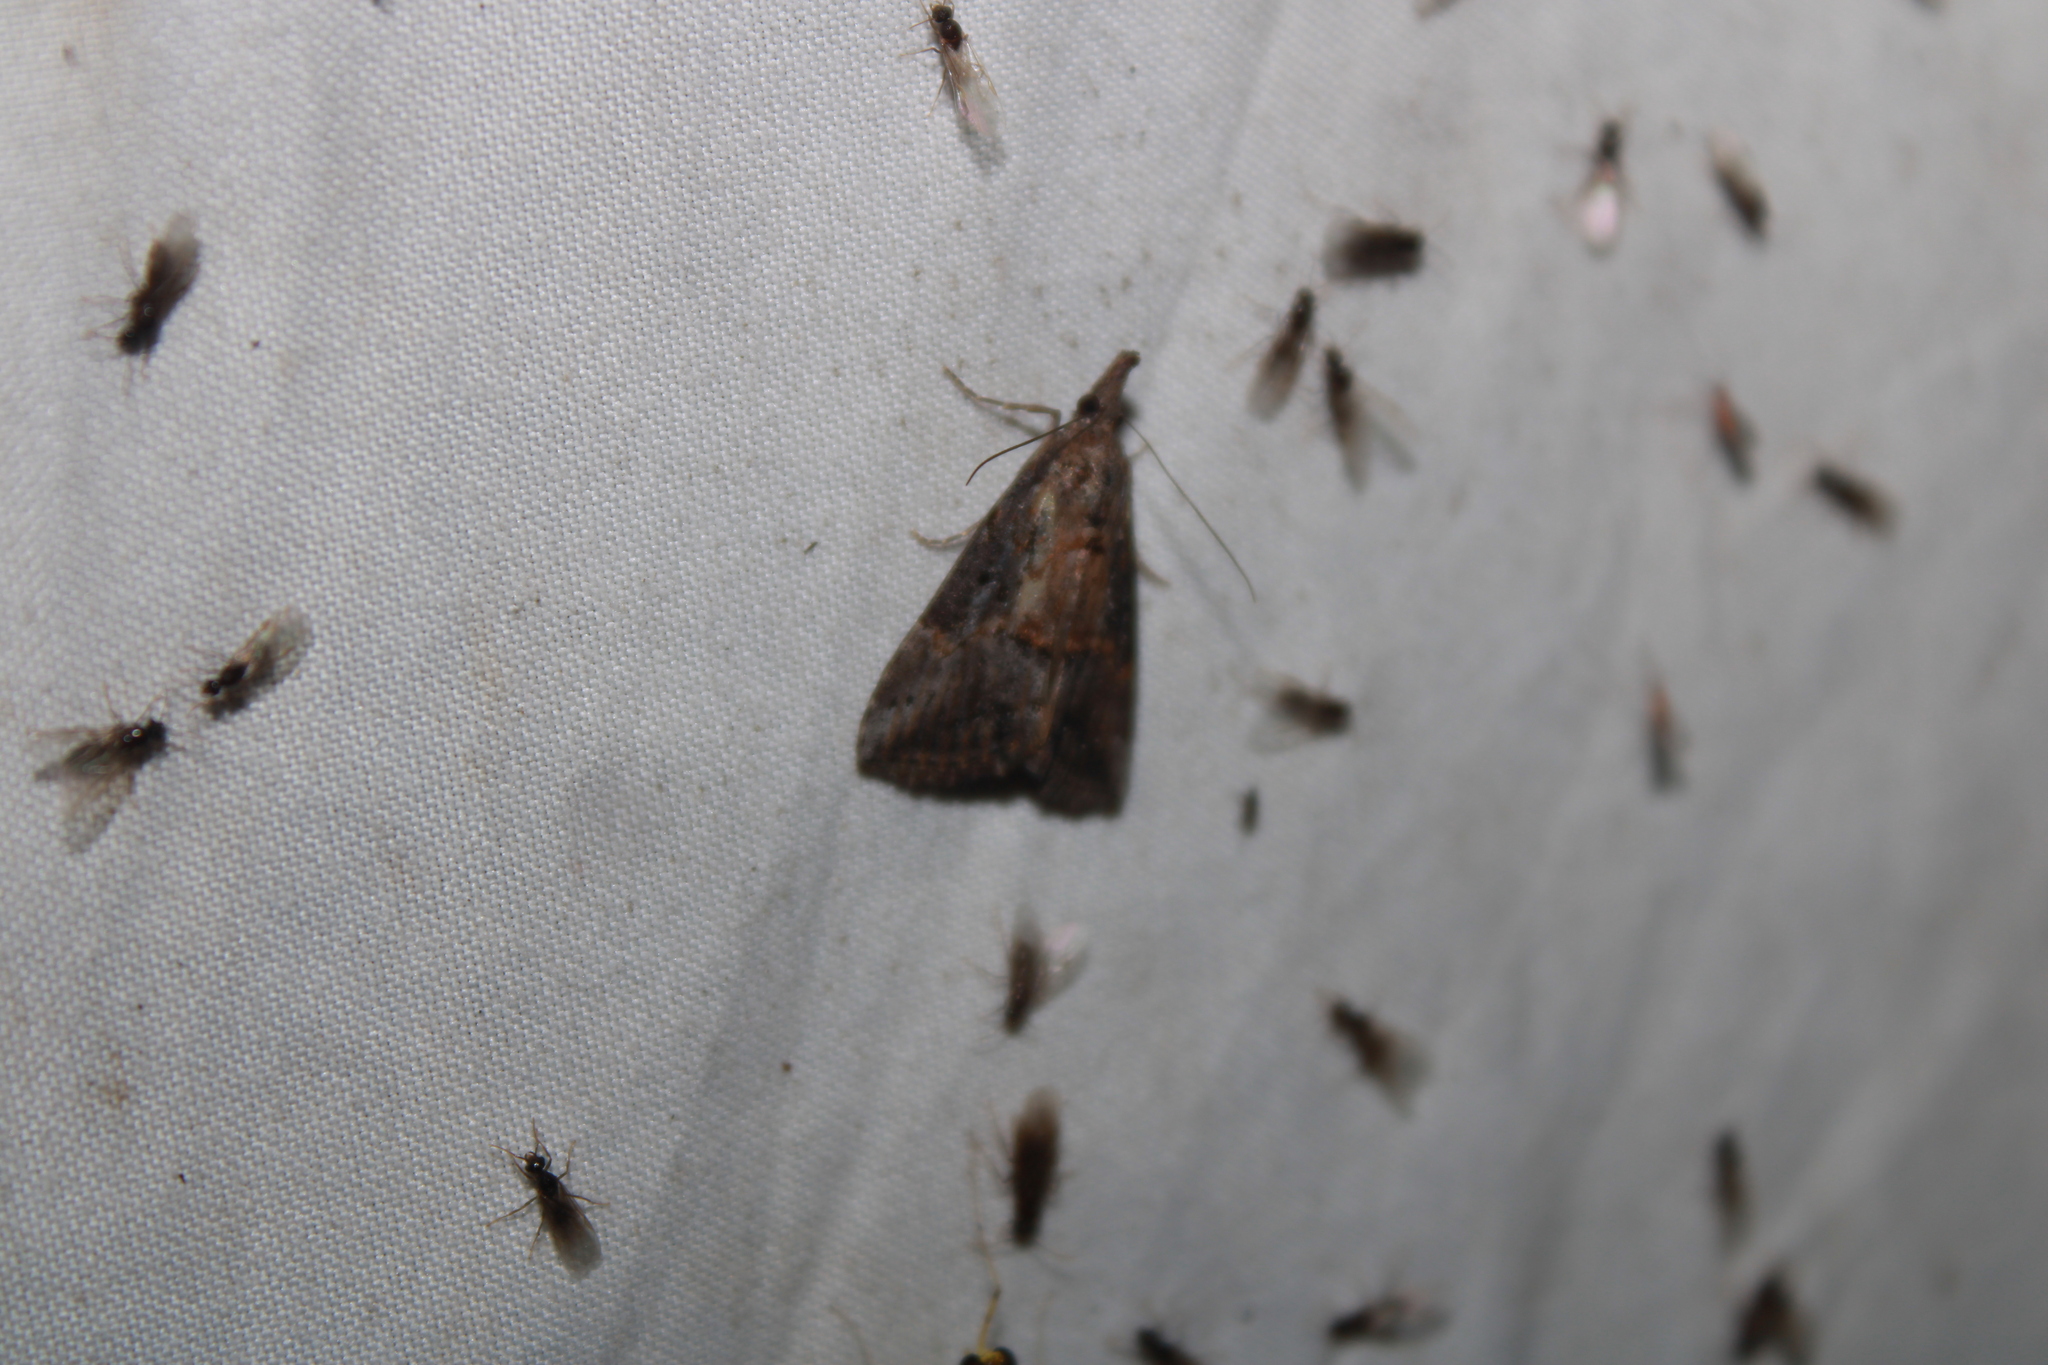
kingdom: Animalia
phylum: Arthropoda
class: Insecta
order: Lepidoptera
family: Erebidae
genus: Hypena
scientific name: Hypena scabra
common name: Green cloverworm
